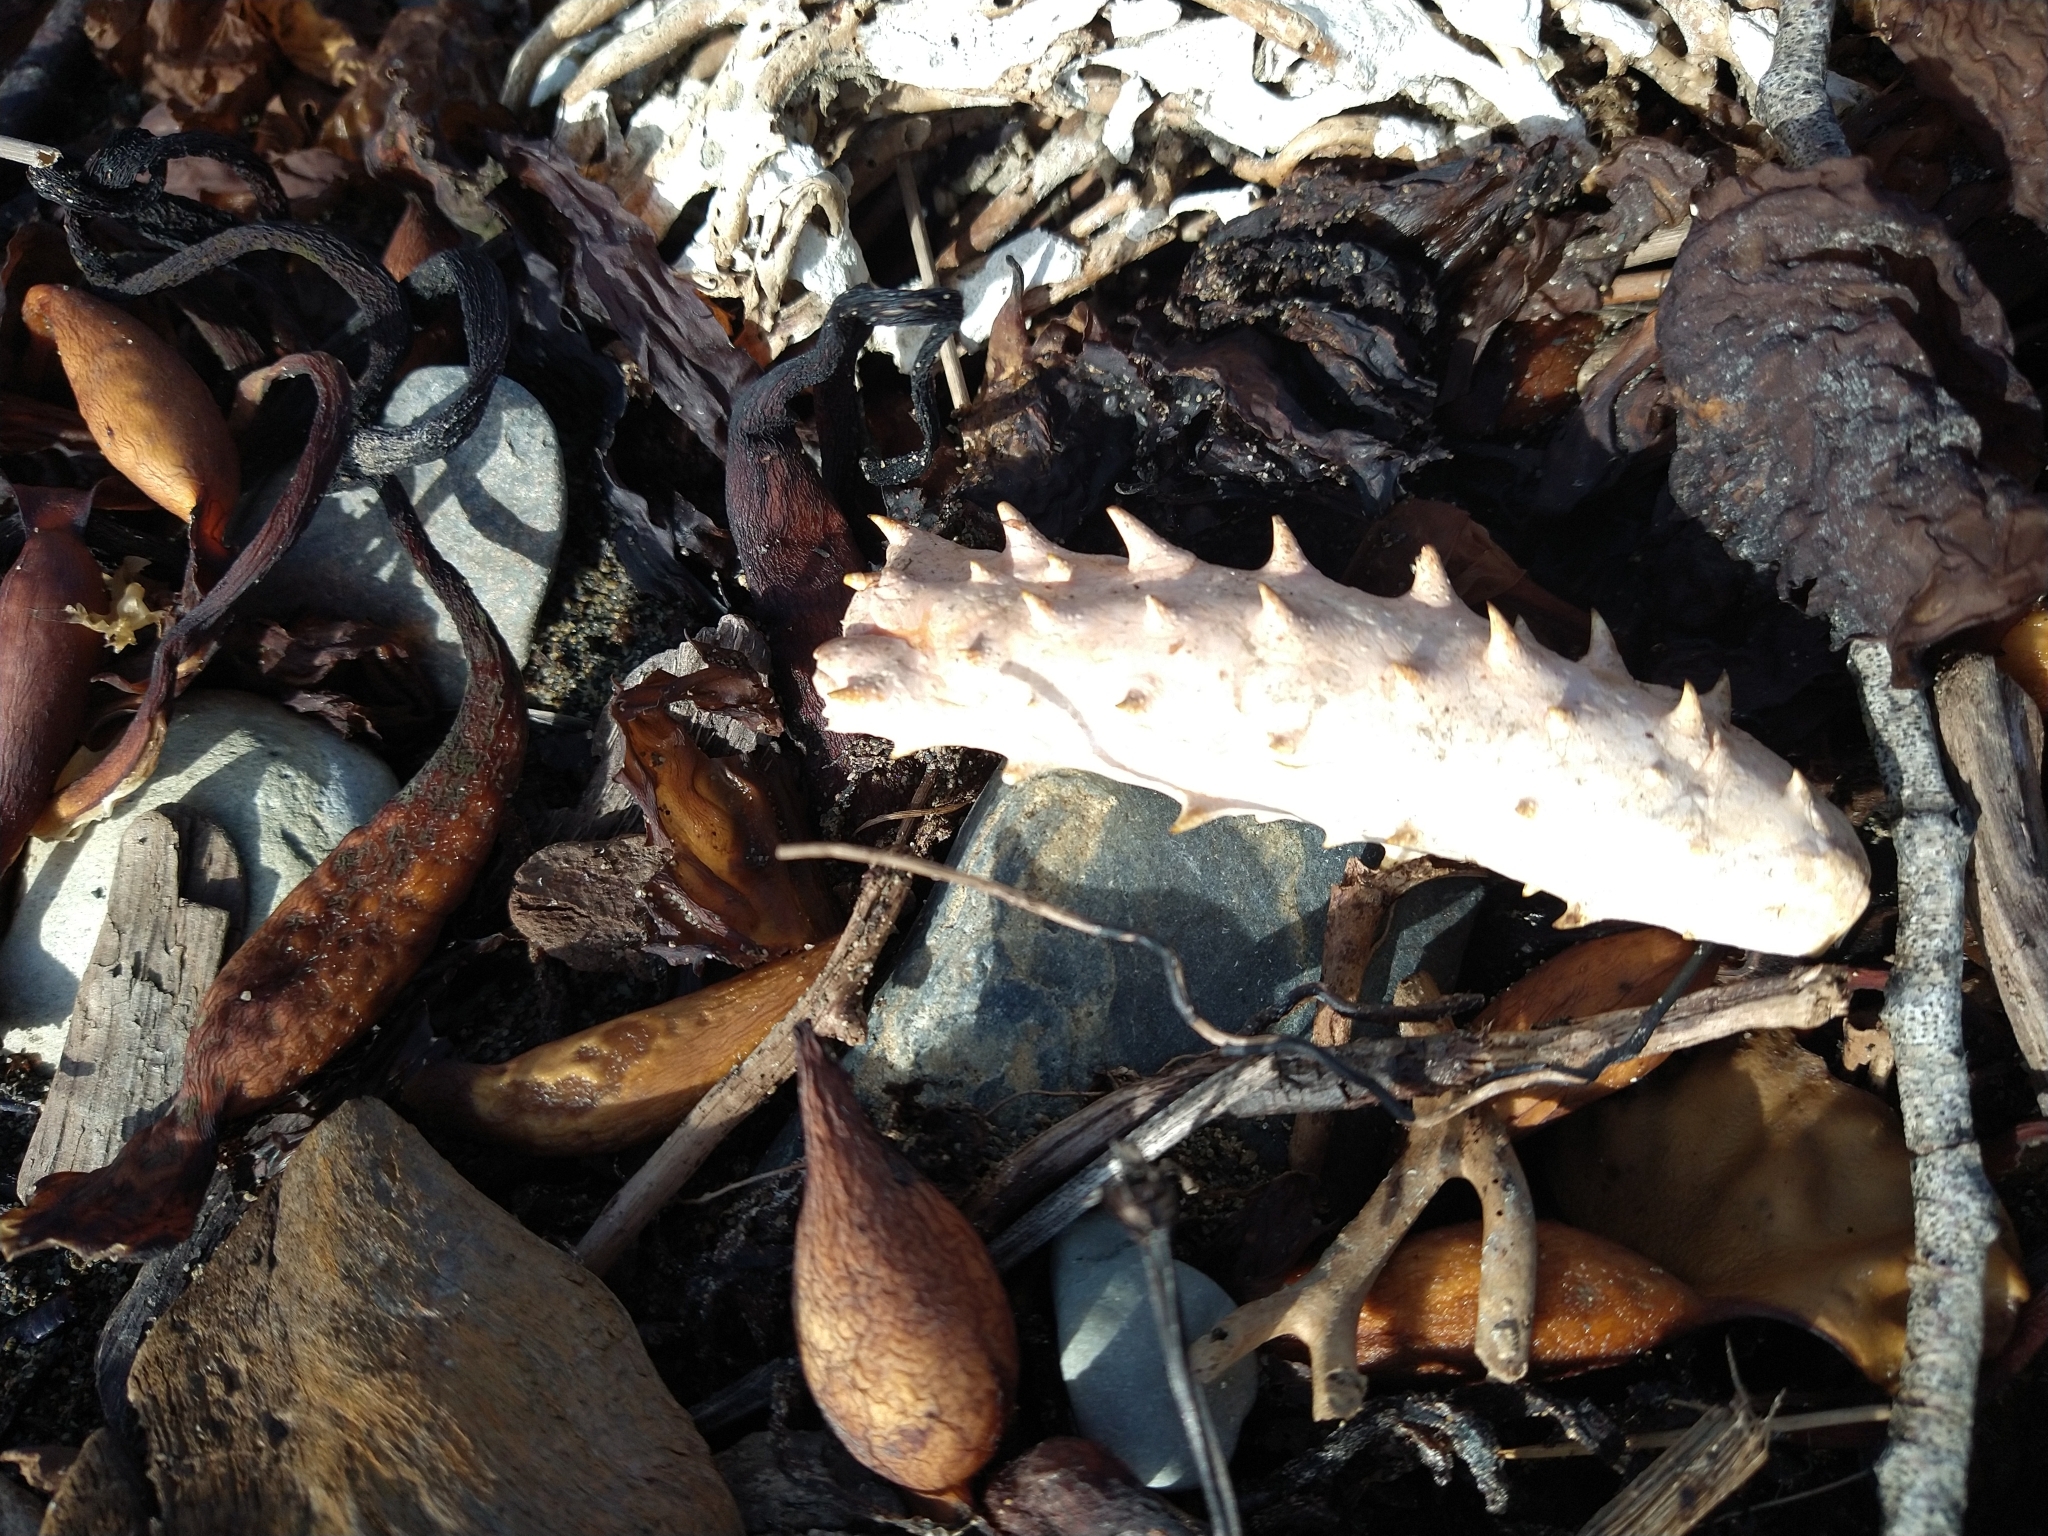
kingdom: Animalia
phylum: Arthropoda
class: Malacostraca
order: Decapoda
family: Lithodidae
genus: Lithodes
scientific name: Lithodes santolla
